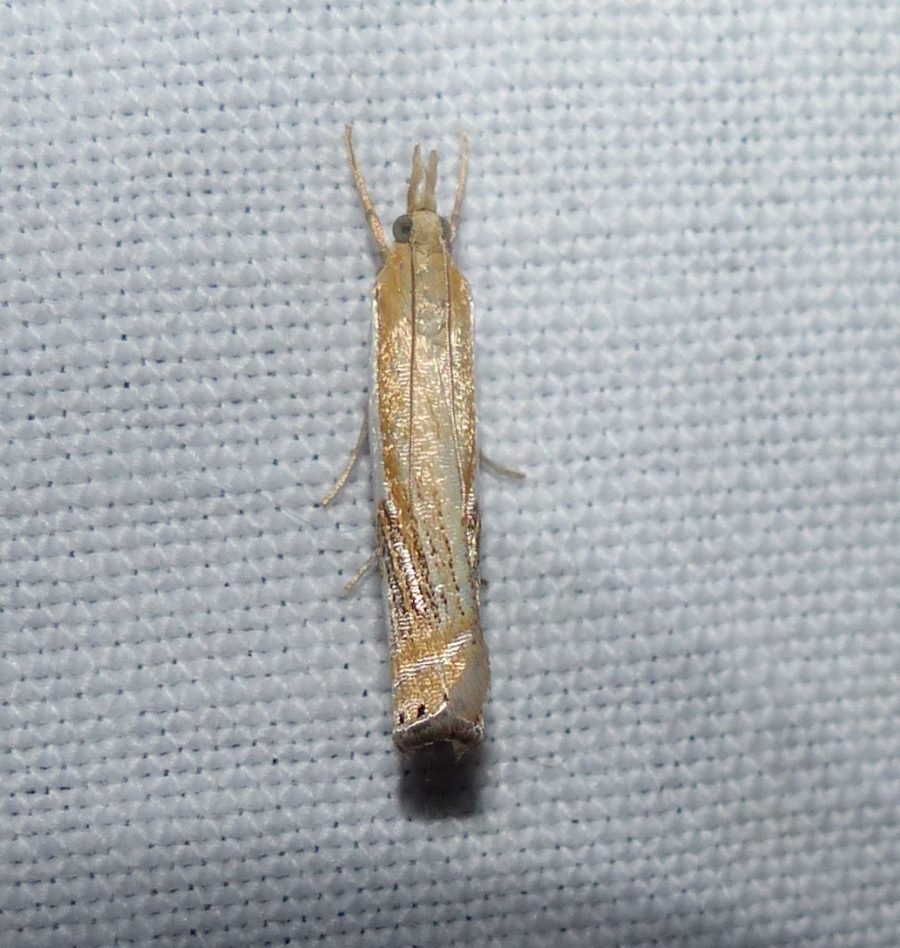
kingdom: Animalia
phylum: Arthropoda
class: Insecta
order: Lepidoptera
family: Crambidae
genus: Crambus
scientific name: Crambus agitatellus
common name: Double-banded grass-veneer
